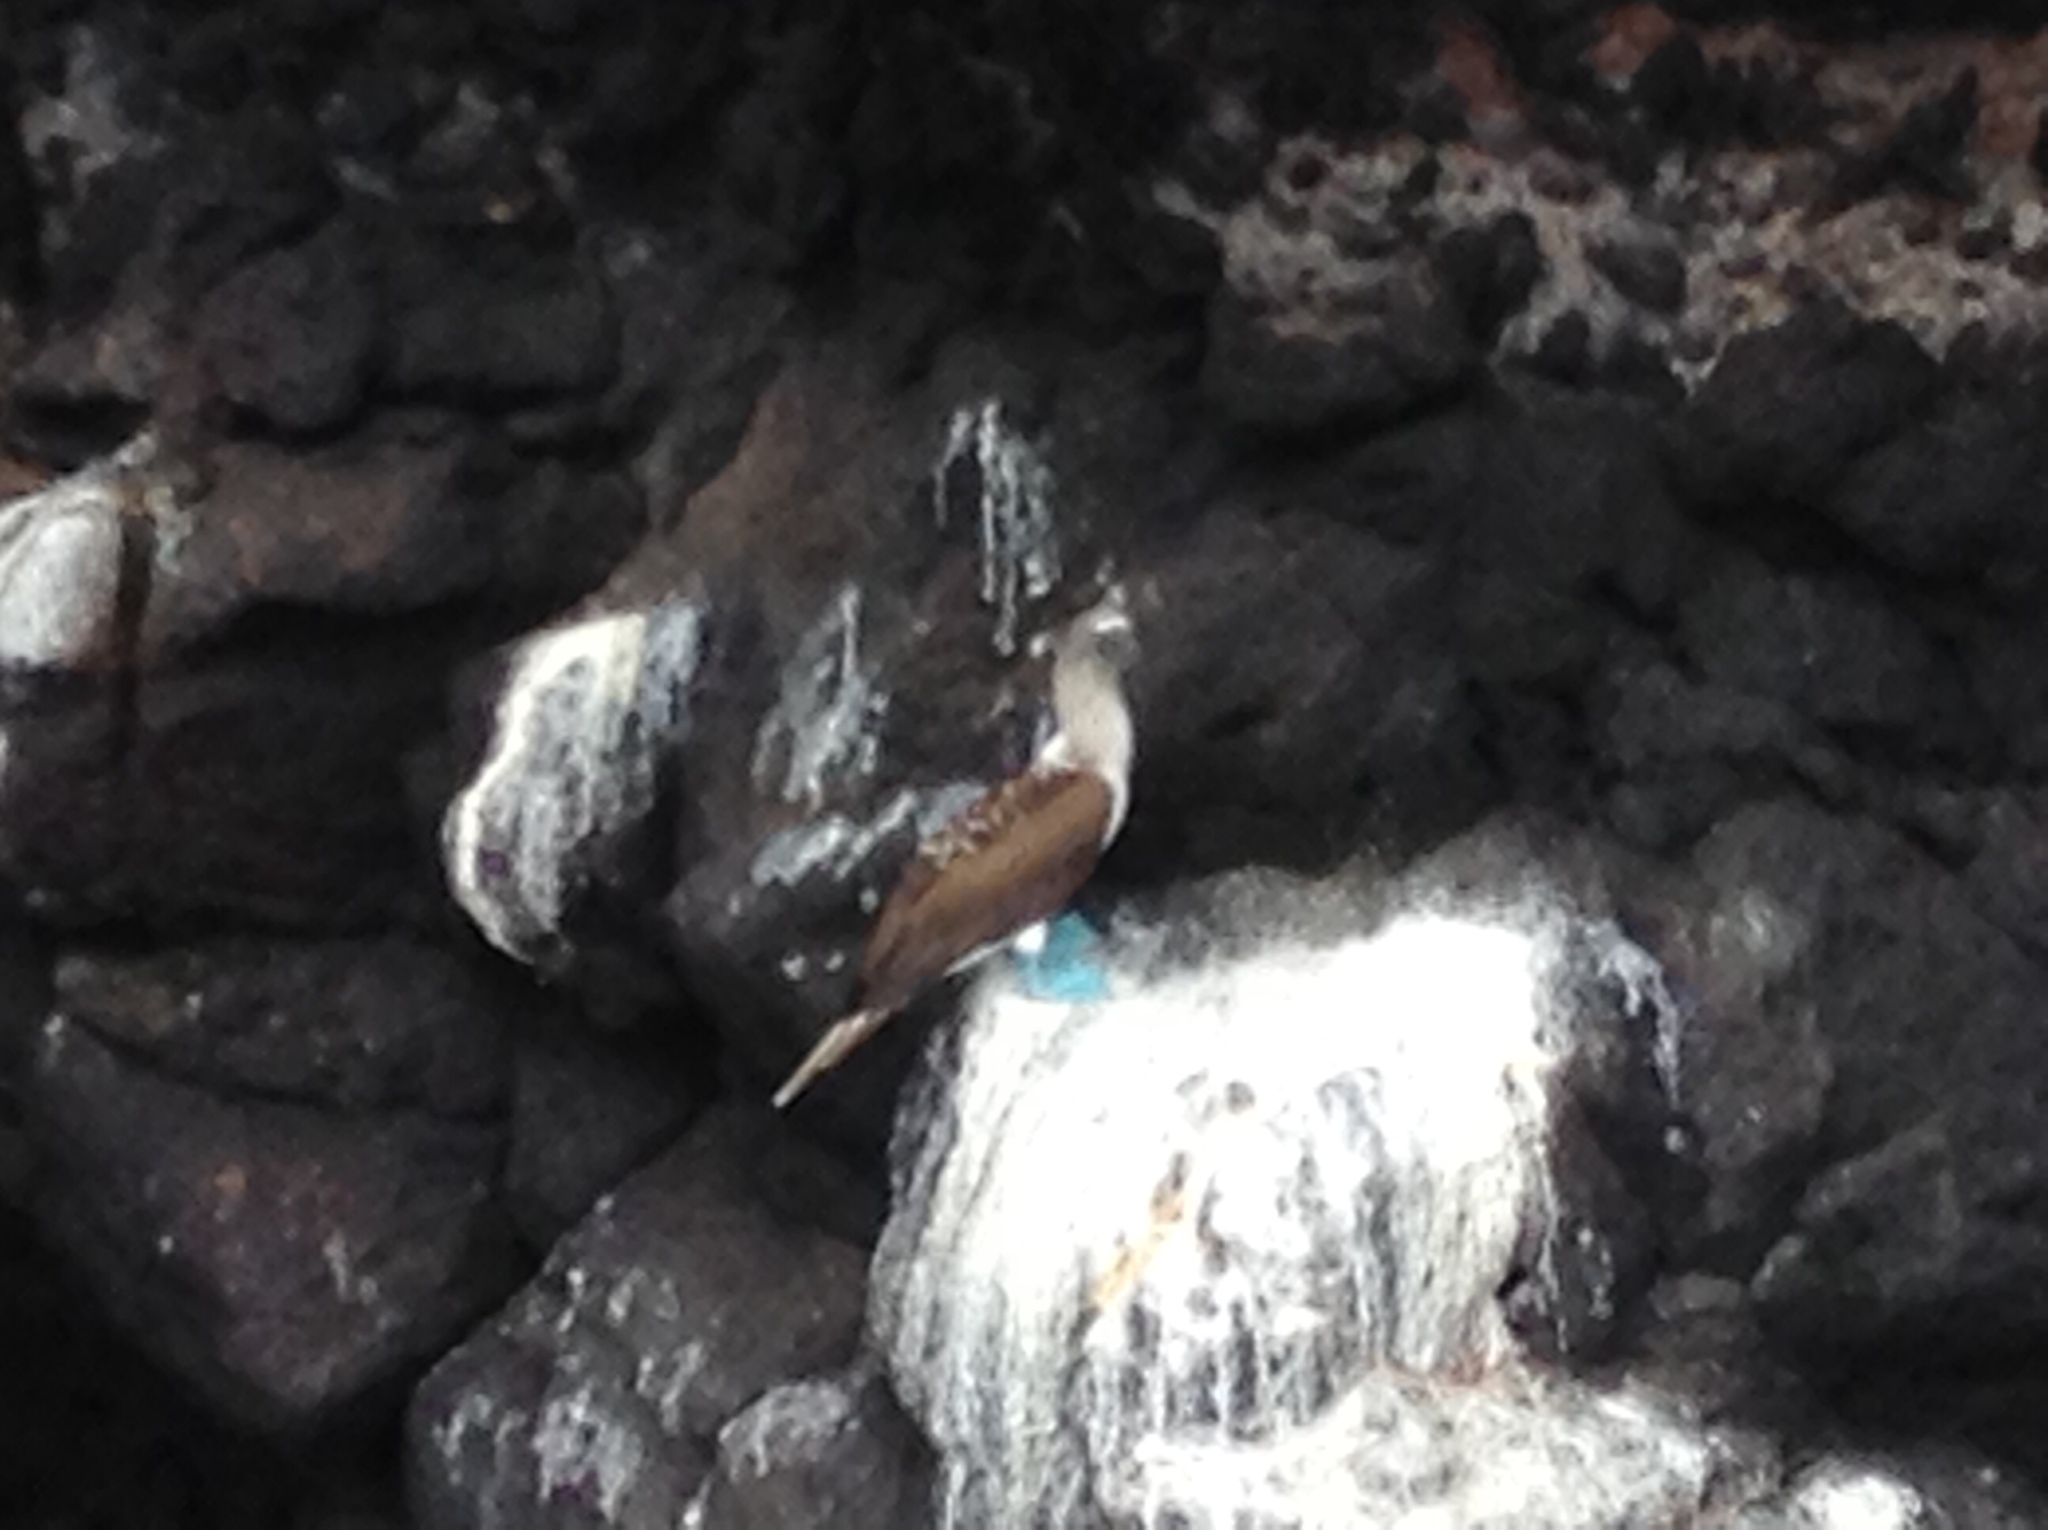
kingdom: Animalia
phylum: Chordata
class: Aves
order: Suliformes
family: Sulidae
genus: Sula
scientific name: Sula nebouxii
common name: Blue-footed booby
